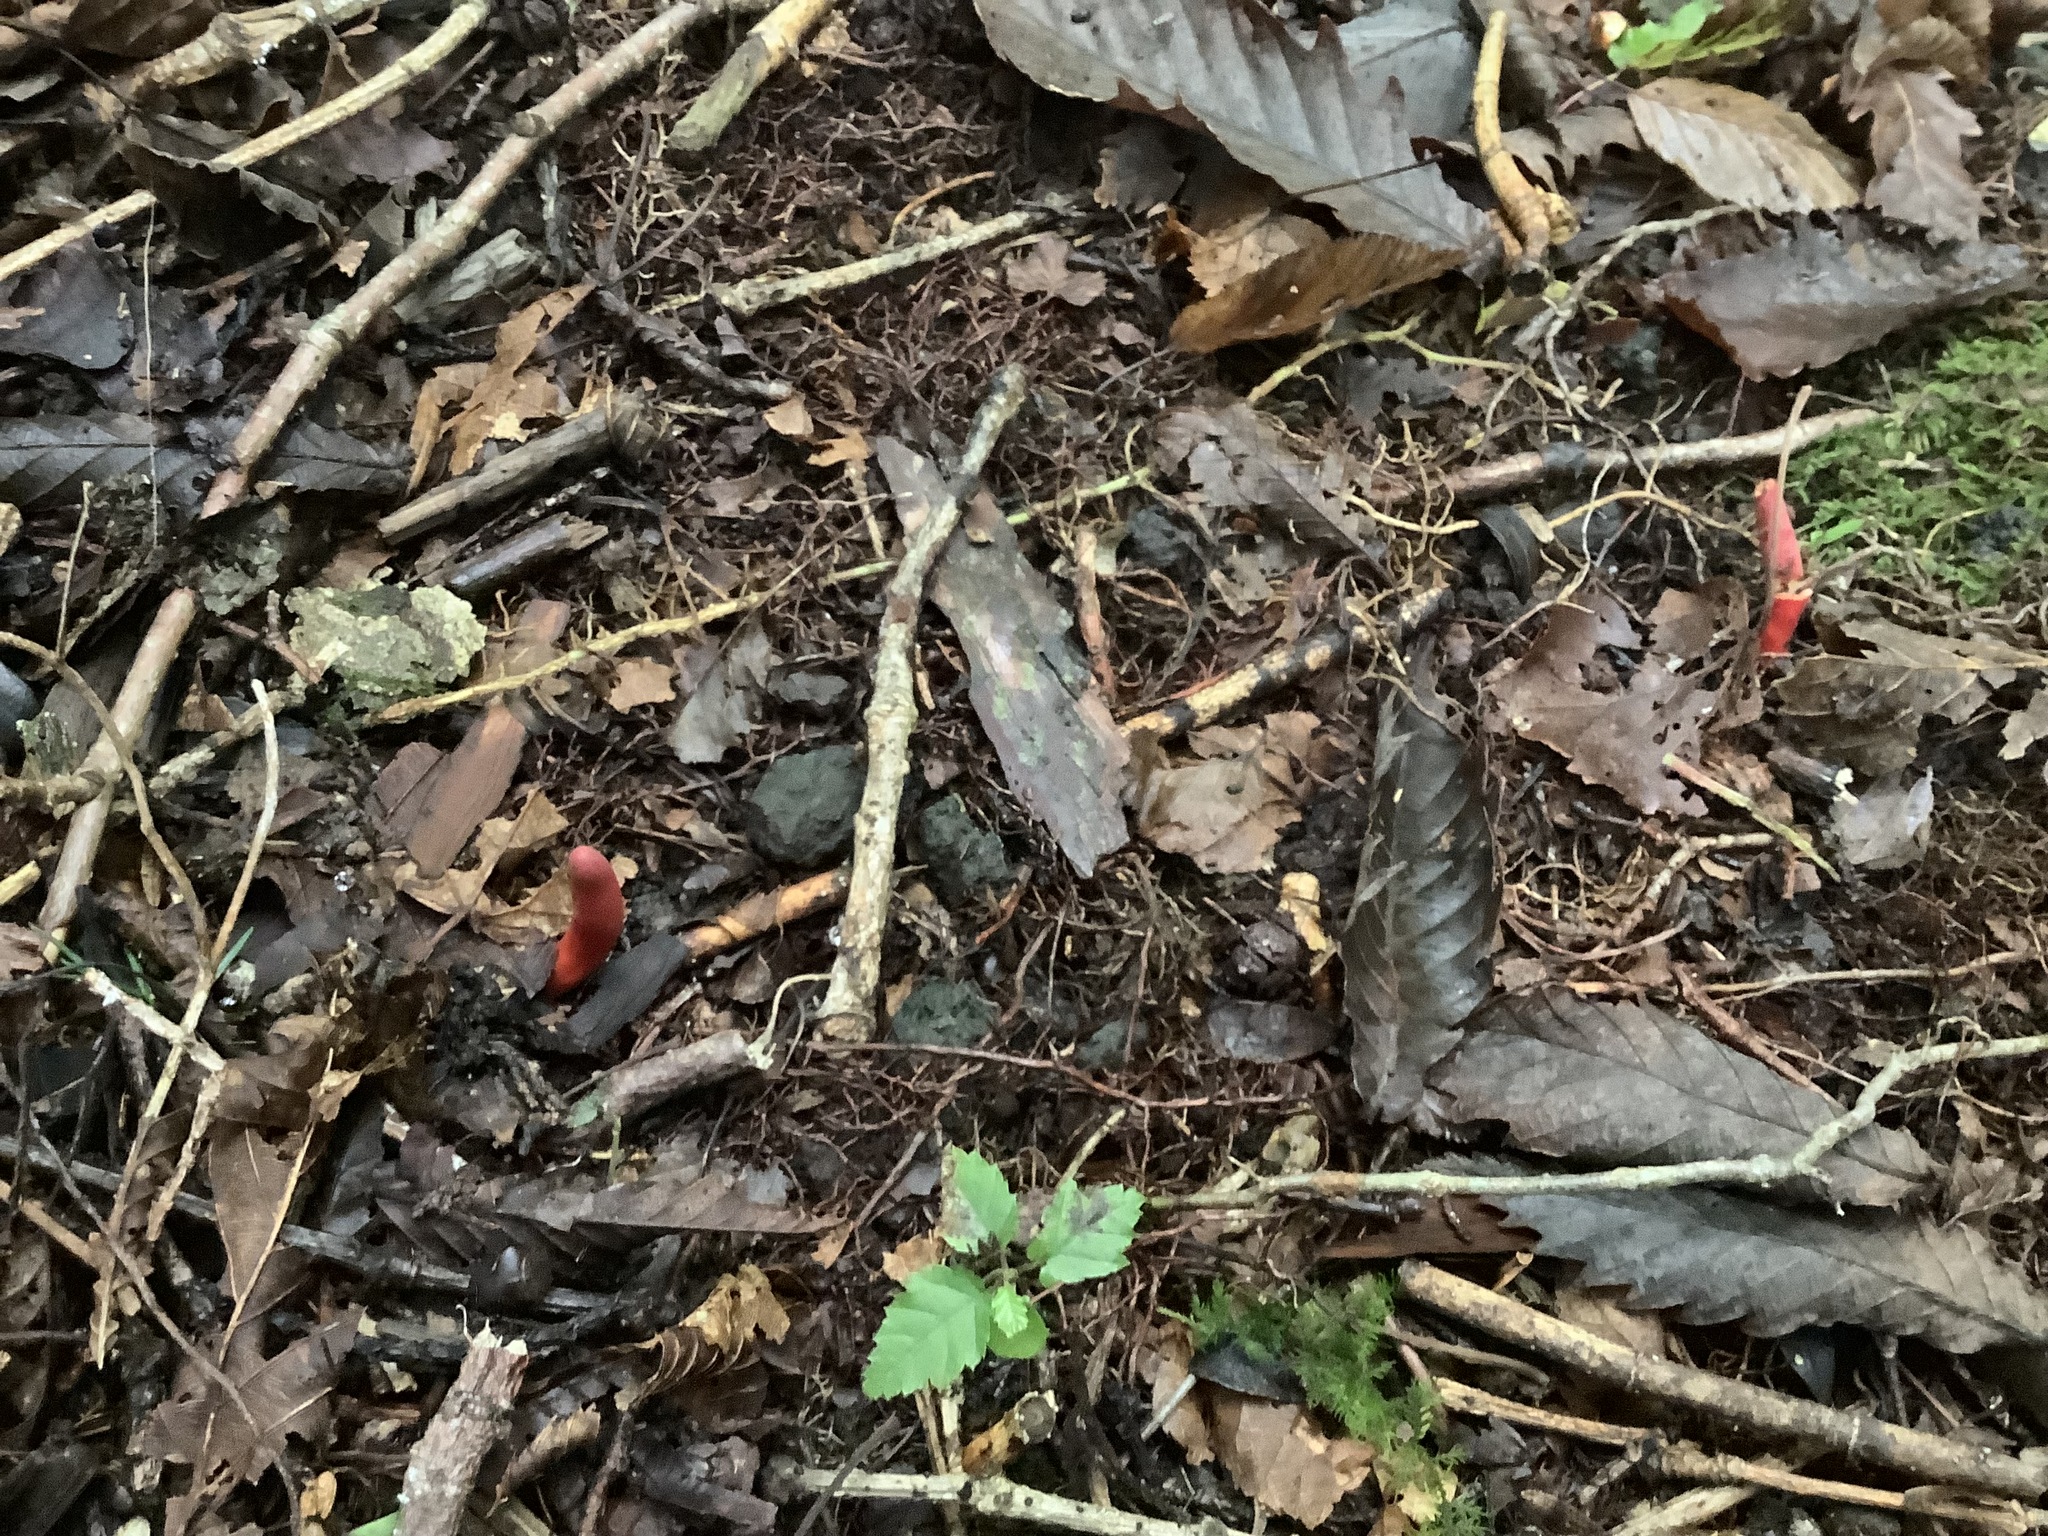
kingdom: Fungi
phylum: Ascomycota
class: Sordariomycetes
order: Hypocreales
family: Hypocreaceae
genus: Trichoderma
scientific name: Trichoderma cornu-damae
